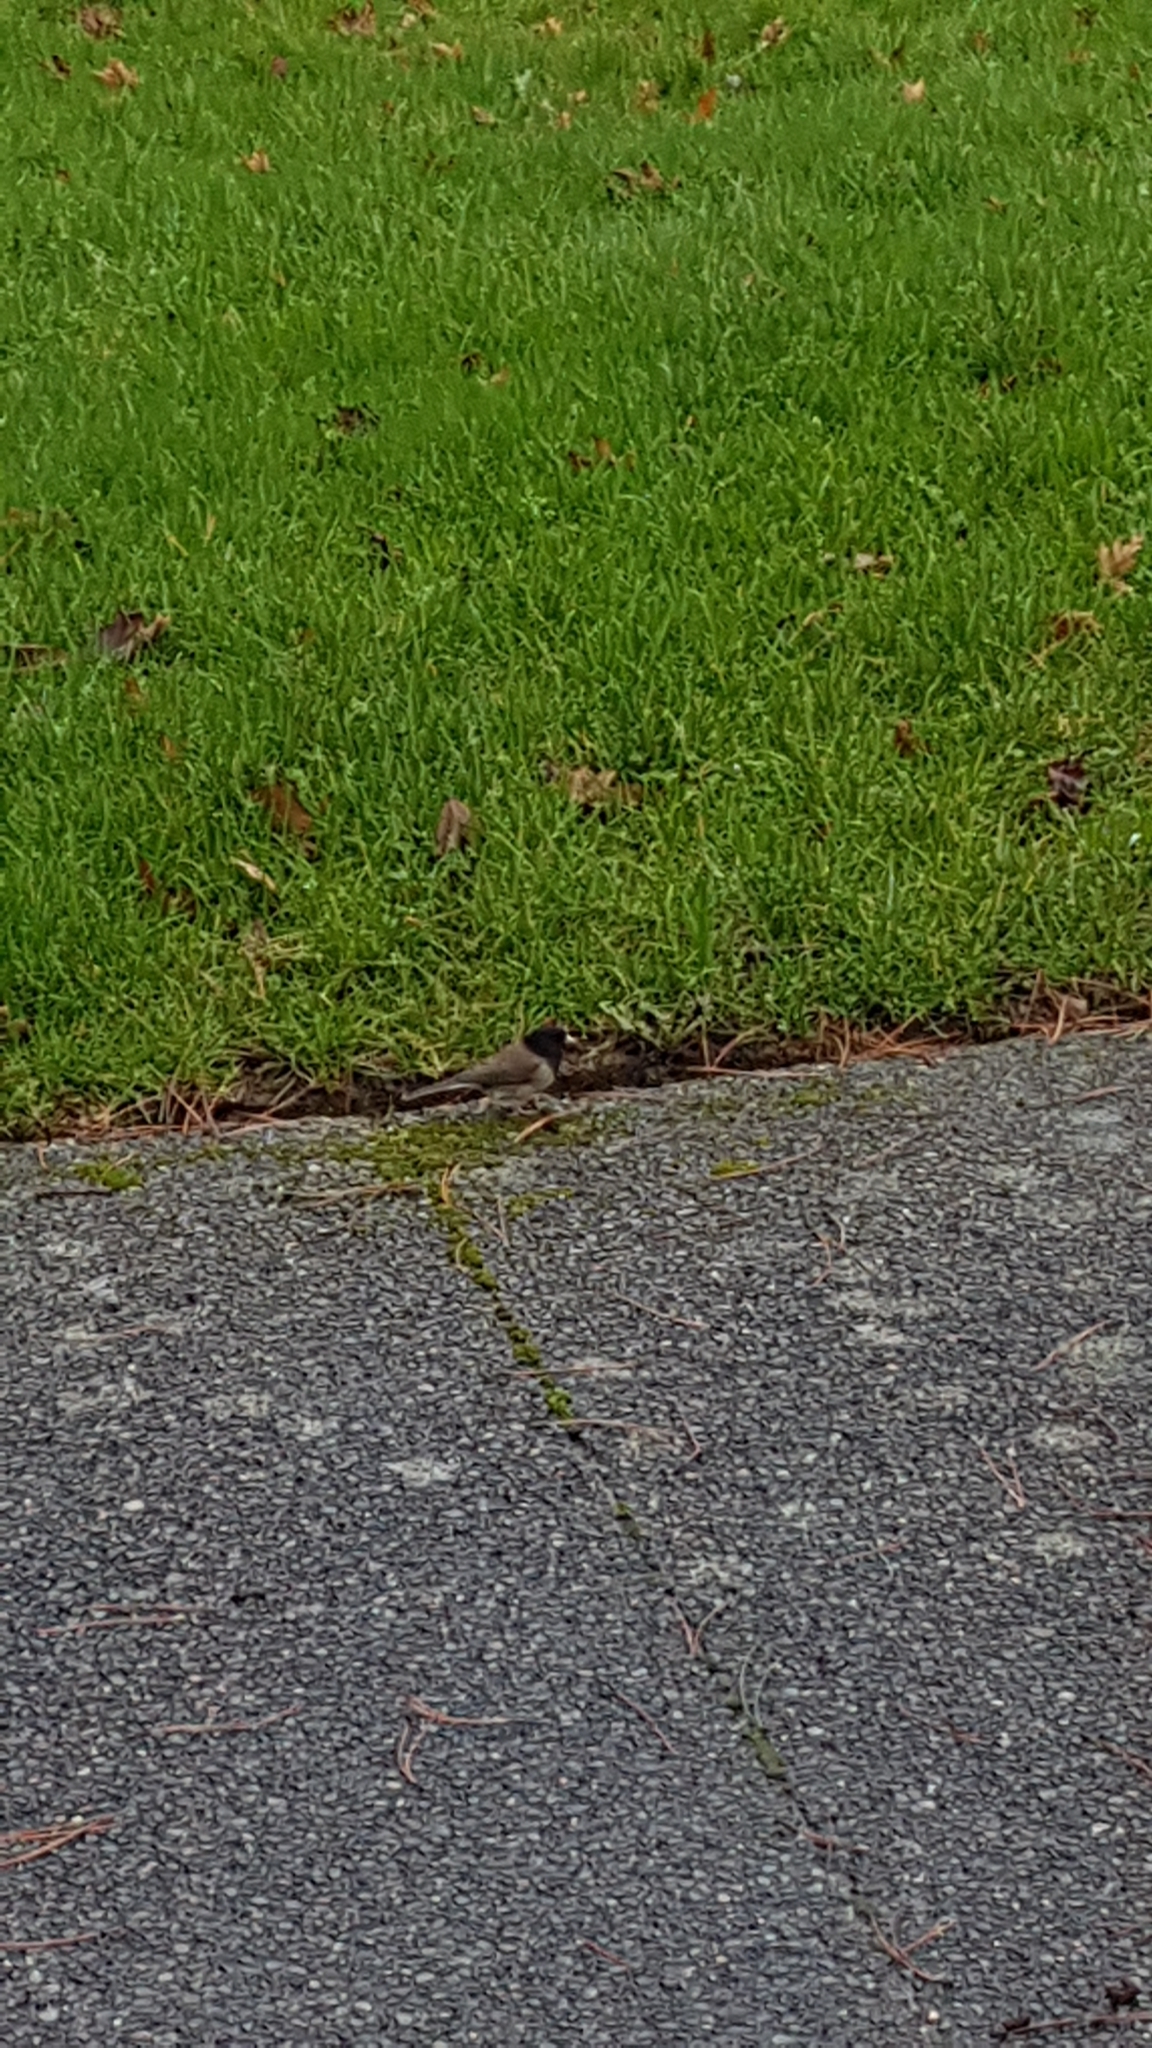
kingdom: Animalia
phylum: Chordata
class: Aves
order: Passeriformes
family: Passerellidae
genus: Junco
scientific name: Junco hyemalis
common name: Dark-eyed junco
